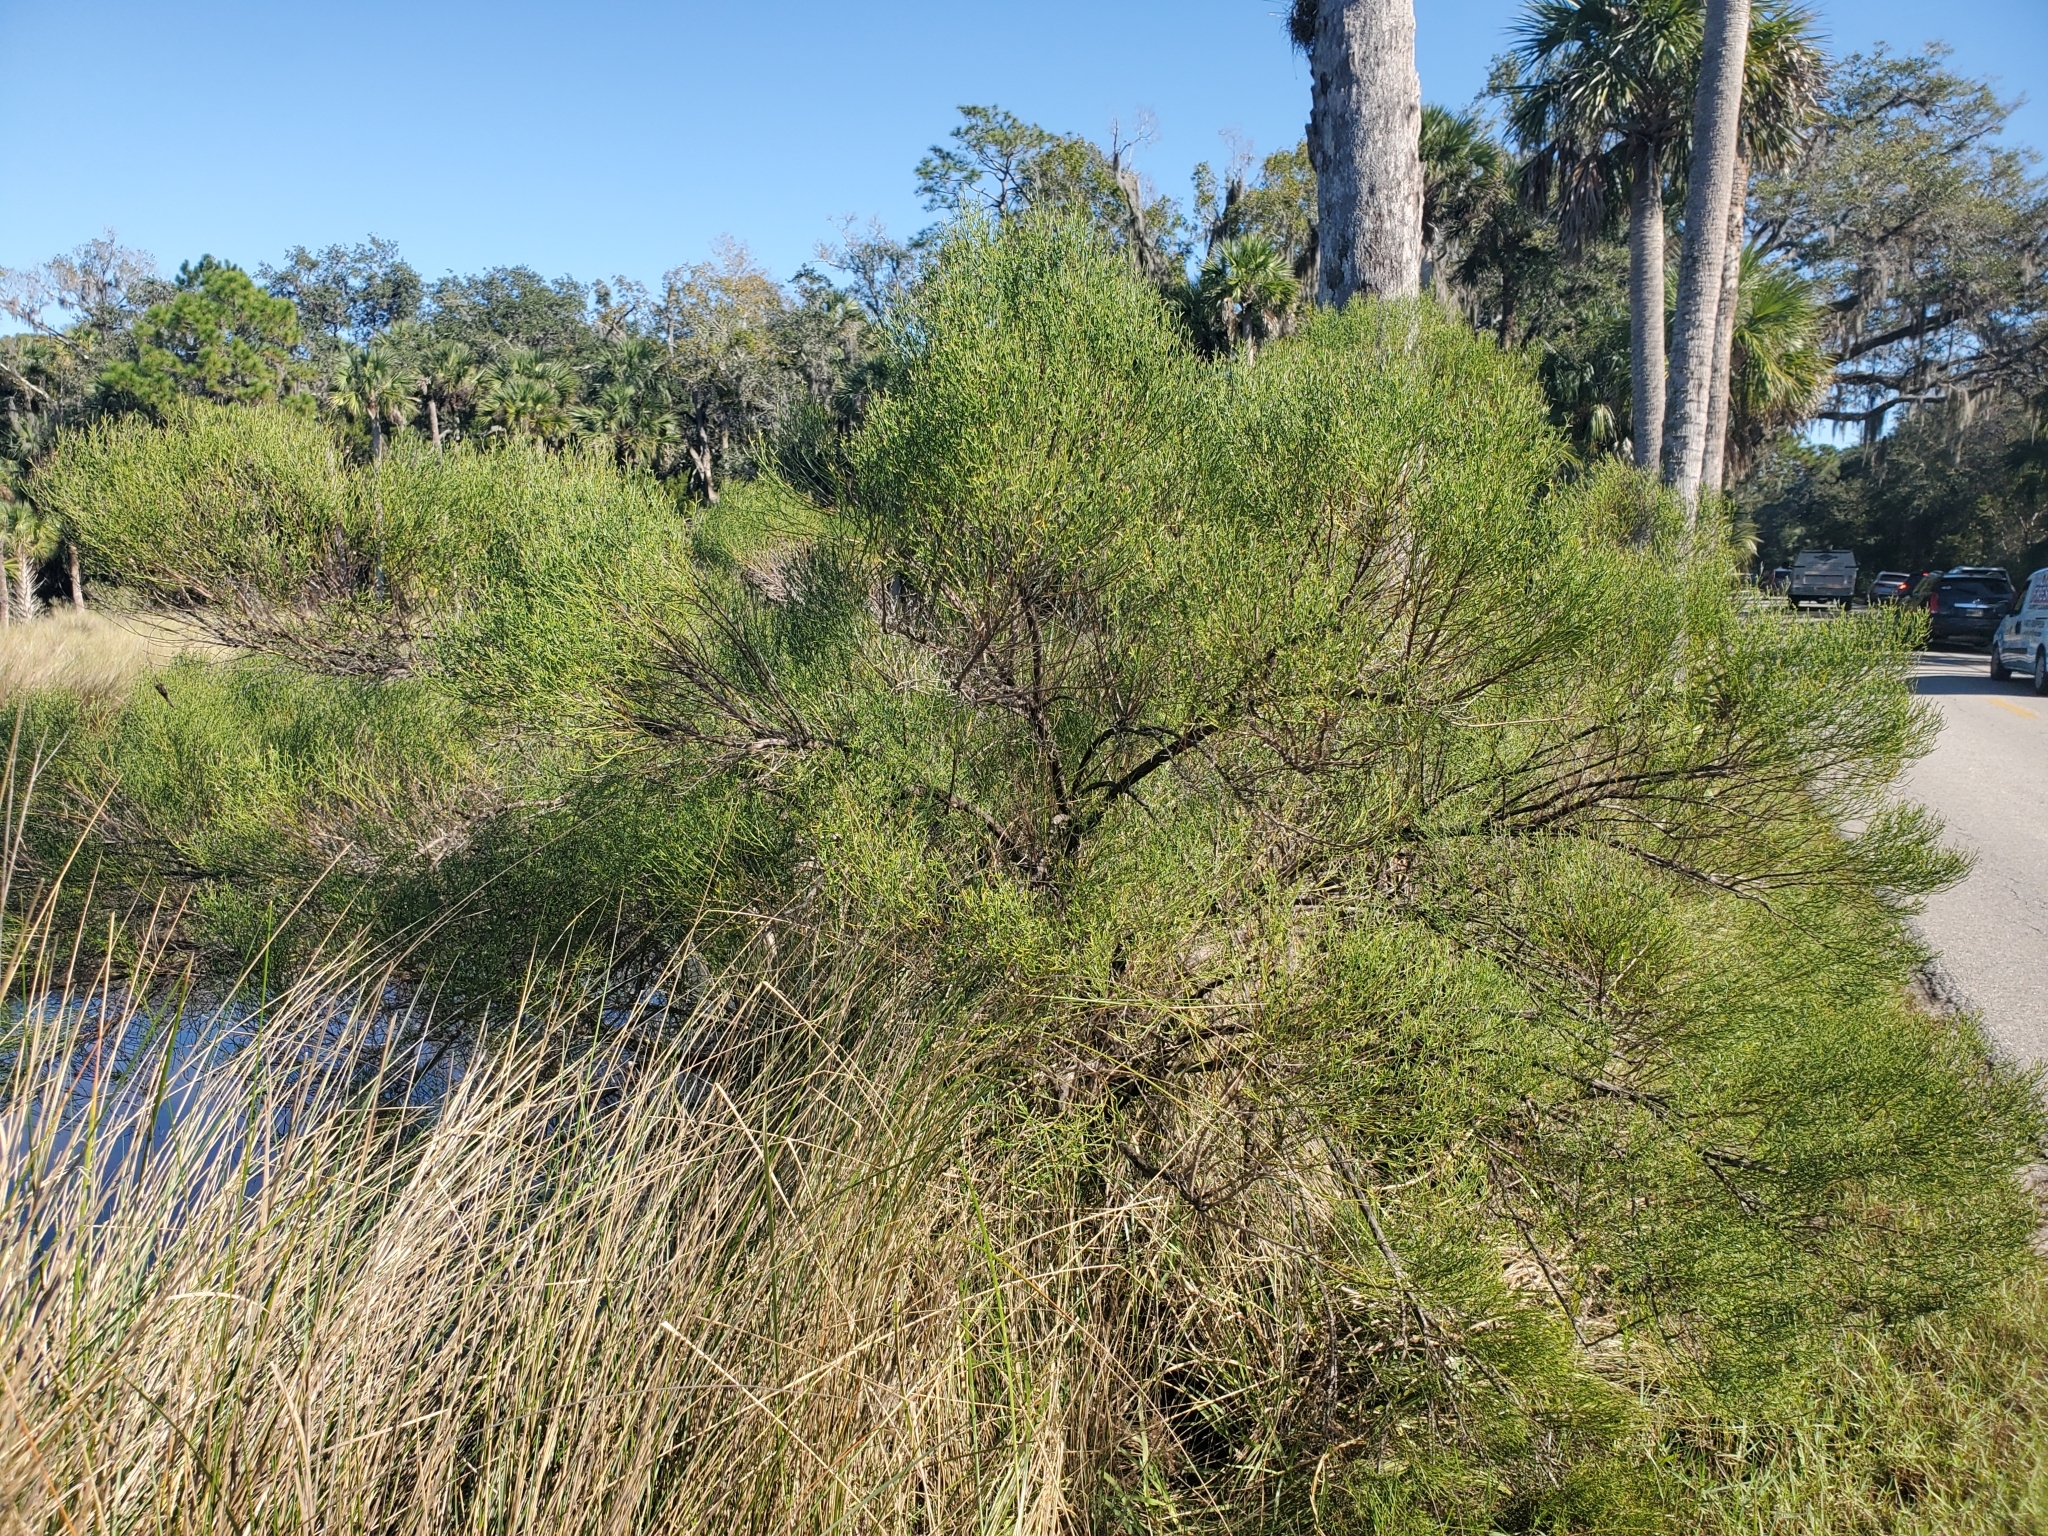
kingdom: Plantae
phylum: Tracheophyta
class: Magnoliopsida
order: Asterales
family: Asteraceae
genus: Baccharis
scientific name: Baccharis angustifolia
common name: Narrow-leaf baccharis
